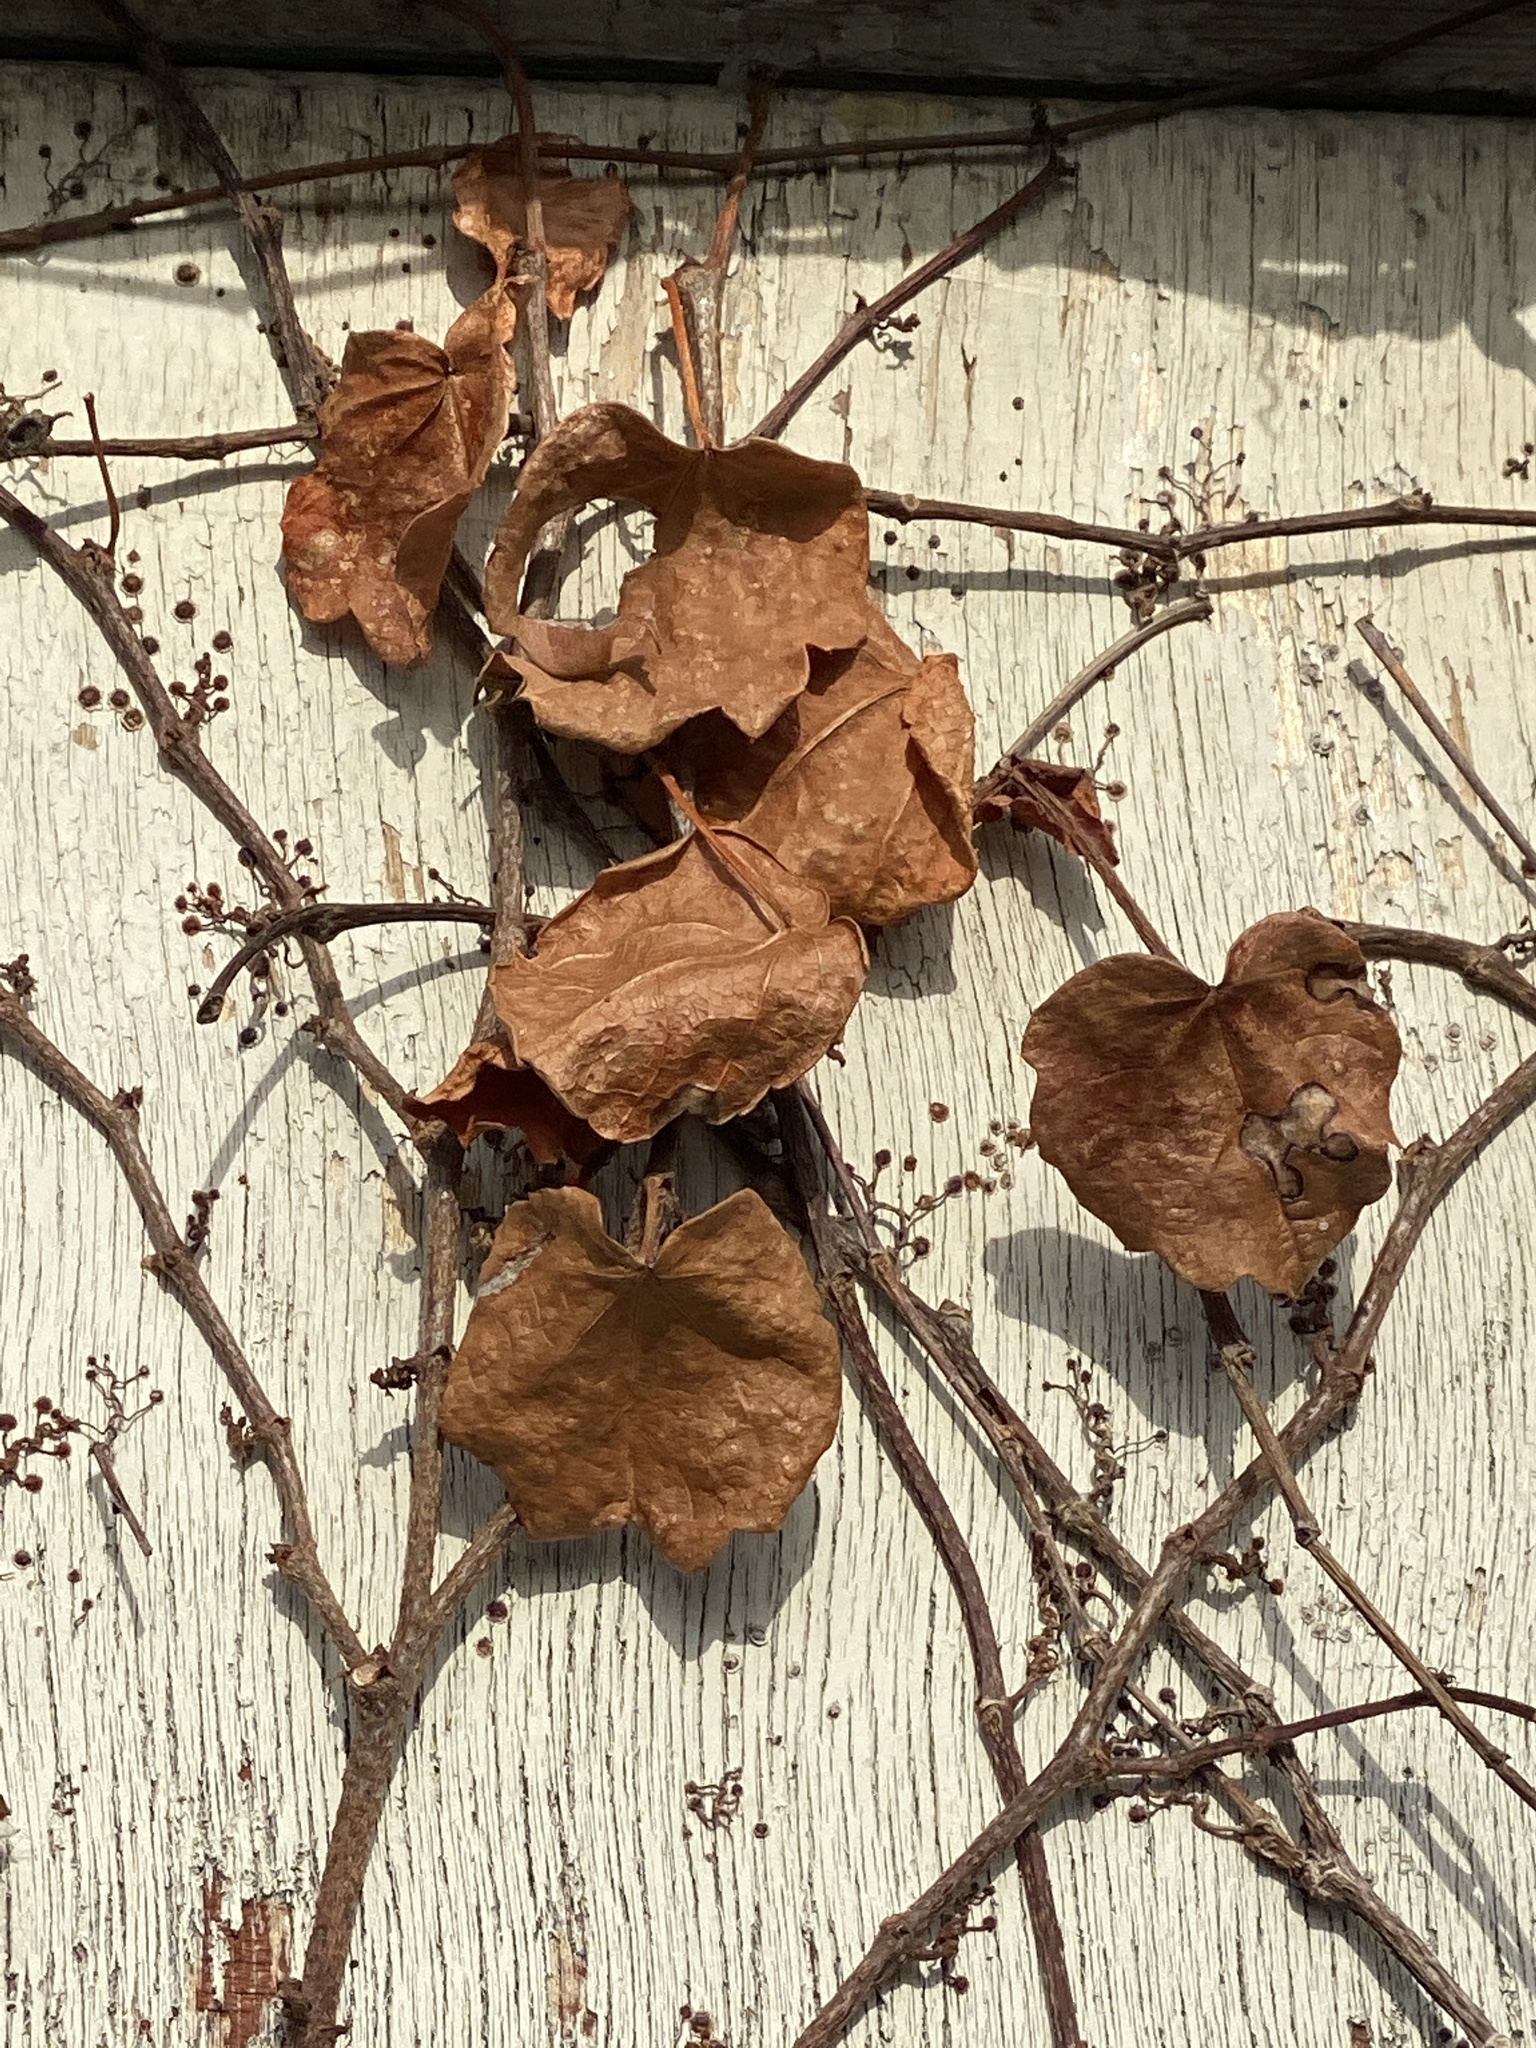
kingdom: Plantae
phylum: Tracheophyta
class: Magnoliopsida
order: Vitales
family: Vitaceae
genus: Parthenocissus
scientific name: Parthenocissus tricuspidata
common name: Boston ivy
